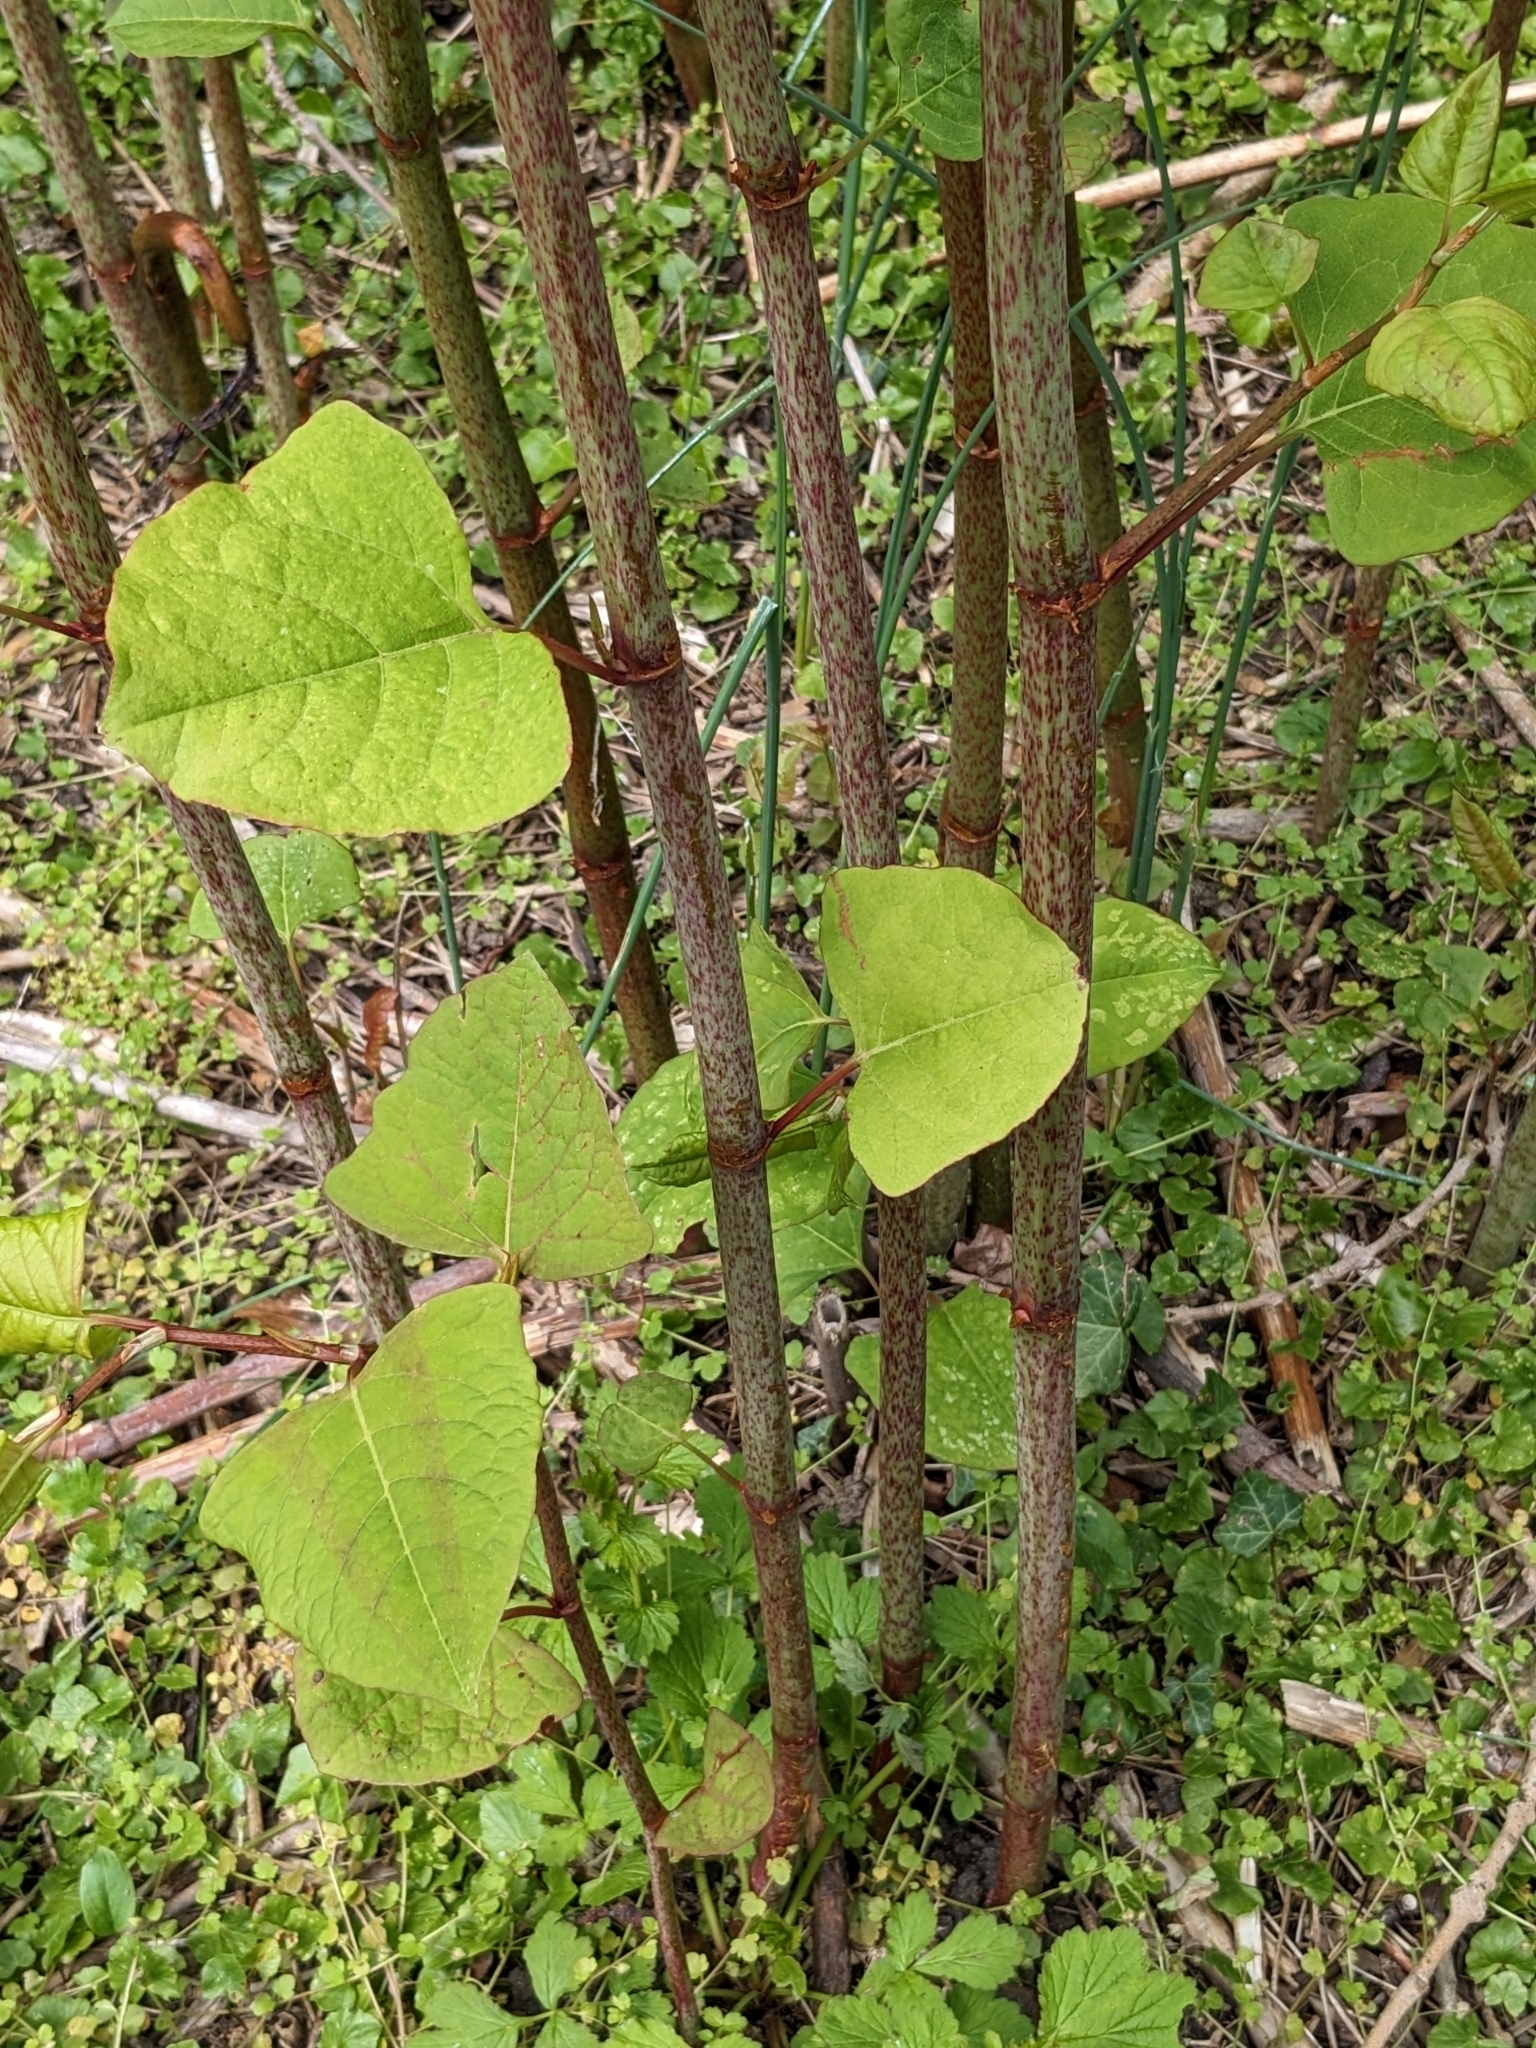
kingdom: Plantae
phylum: Tracheophyta
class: Magnoliopsida
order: Caryophyllales
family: Polygonaceae
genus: Reynoutria
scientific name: Reynoutria japonica
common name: Japanese knotweed
